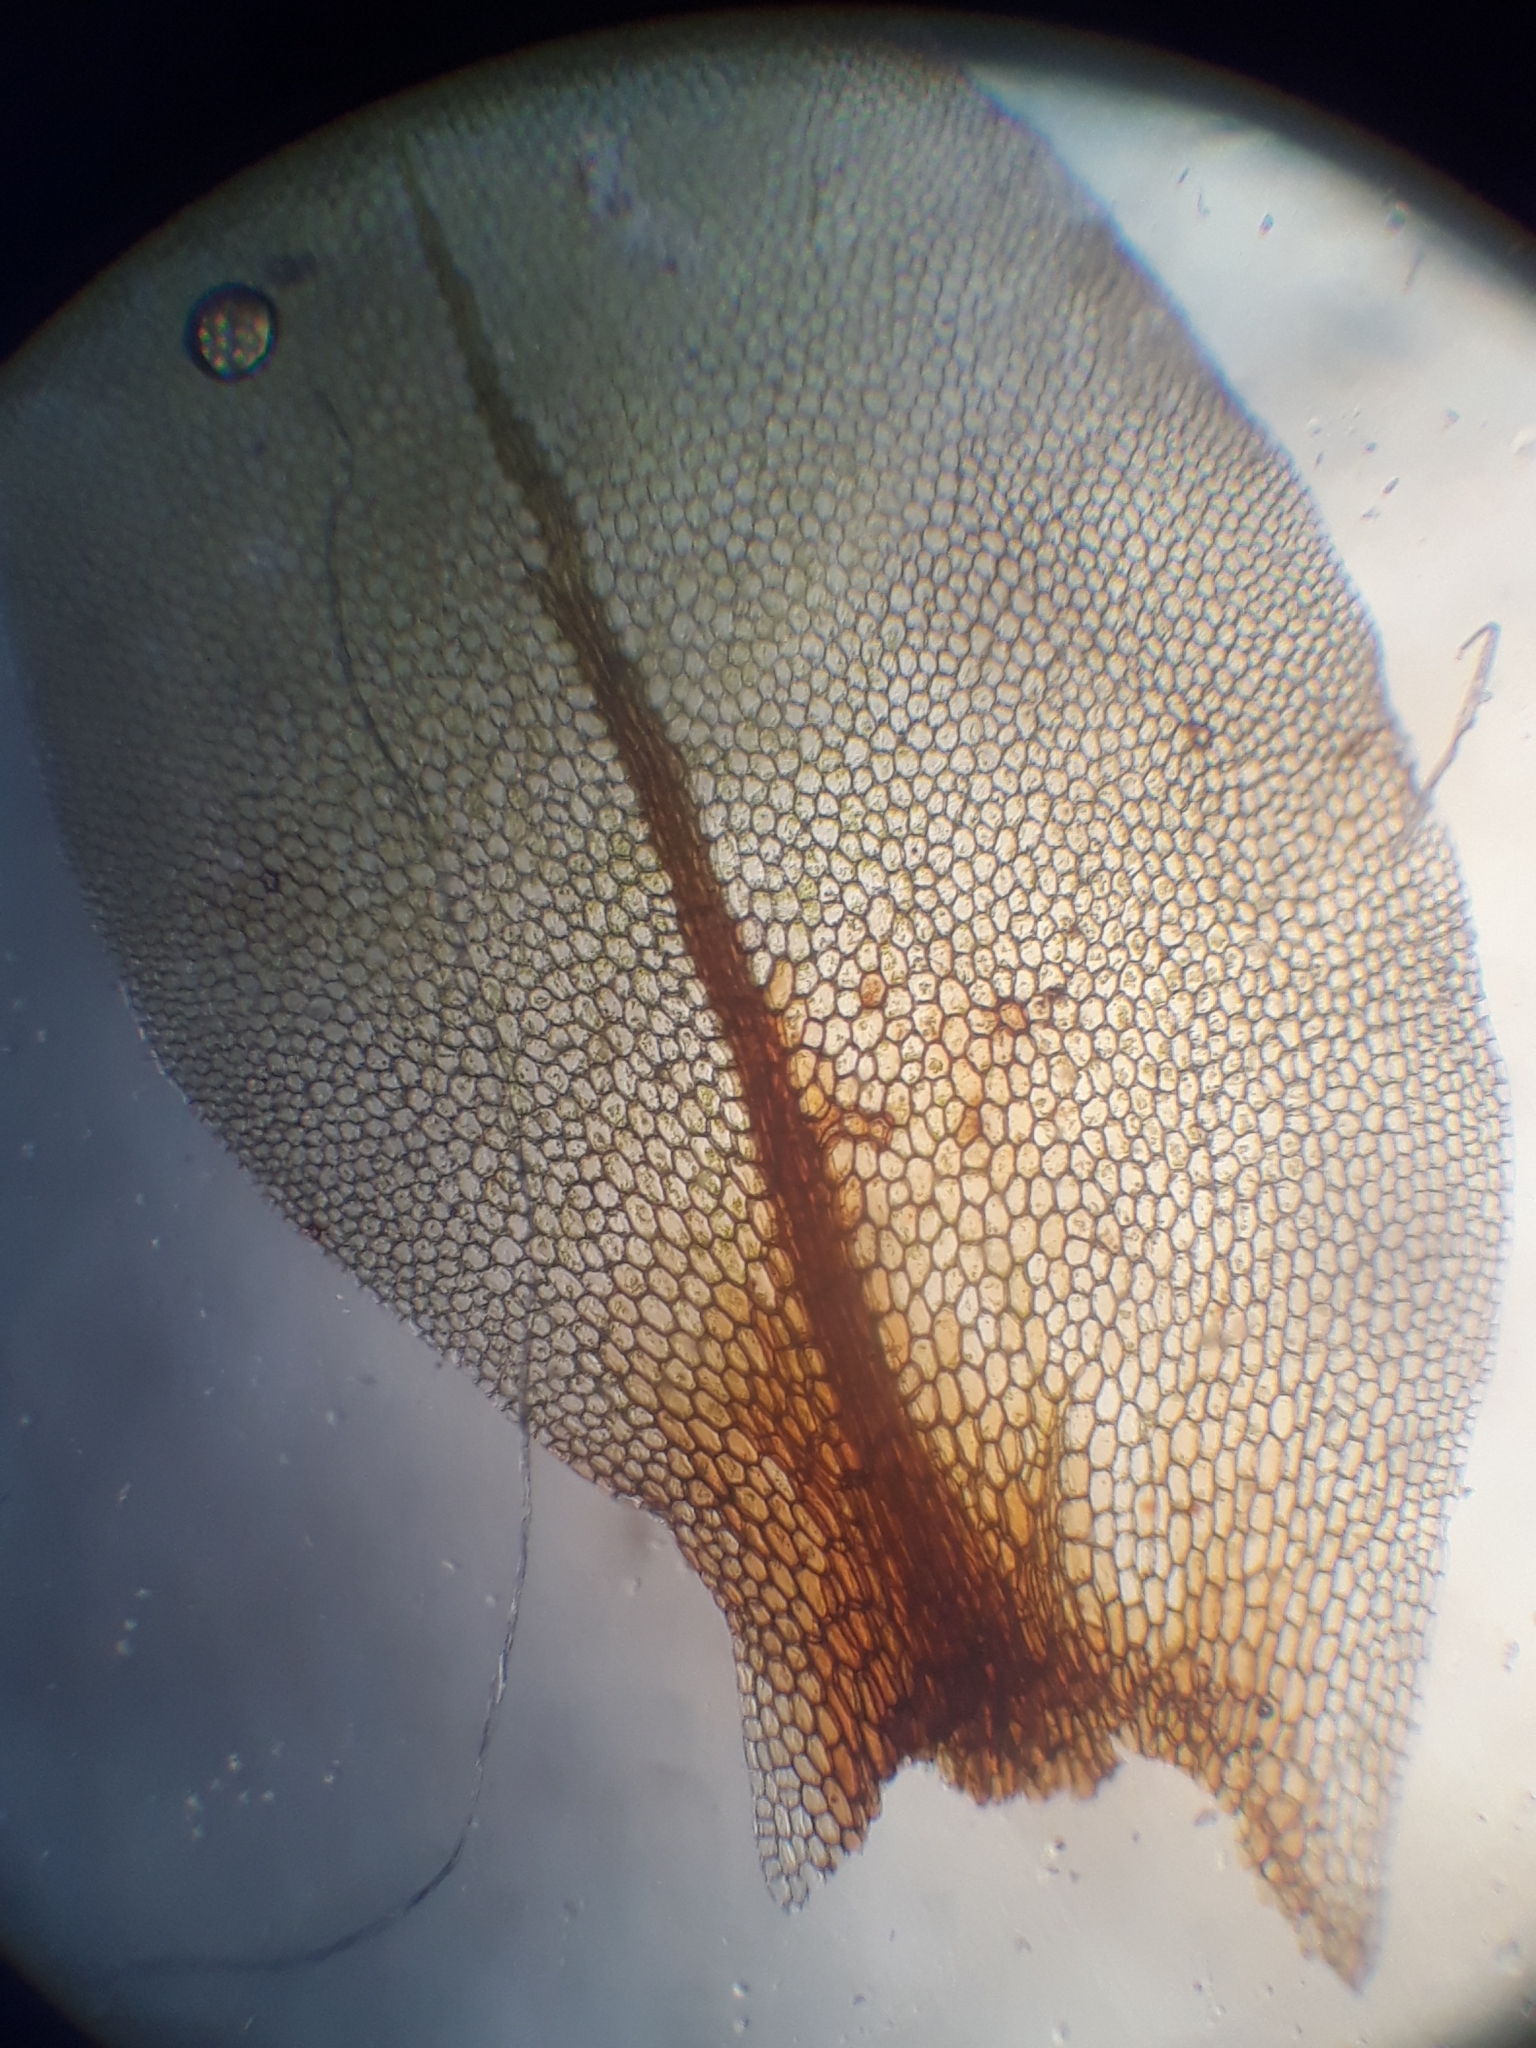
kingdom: Plantae
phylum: Bryophyta
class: Bryopsida
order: Hookeriales
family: Daltoniaceae
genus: Achrophyllum
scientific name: Achrophyllum dentatum
